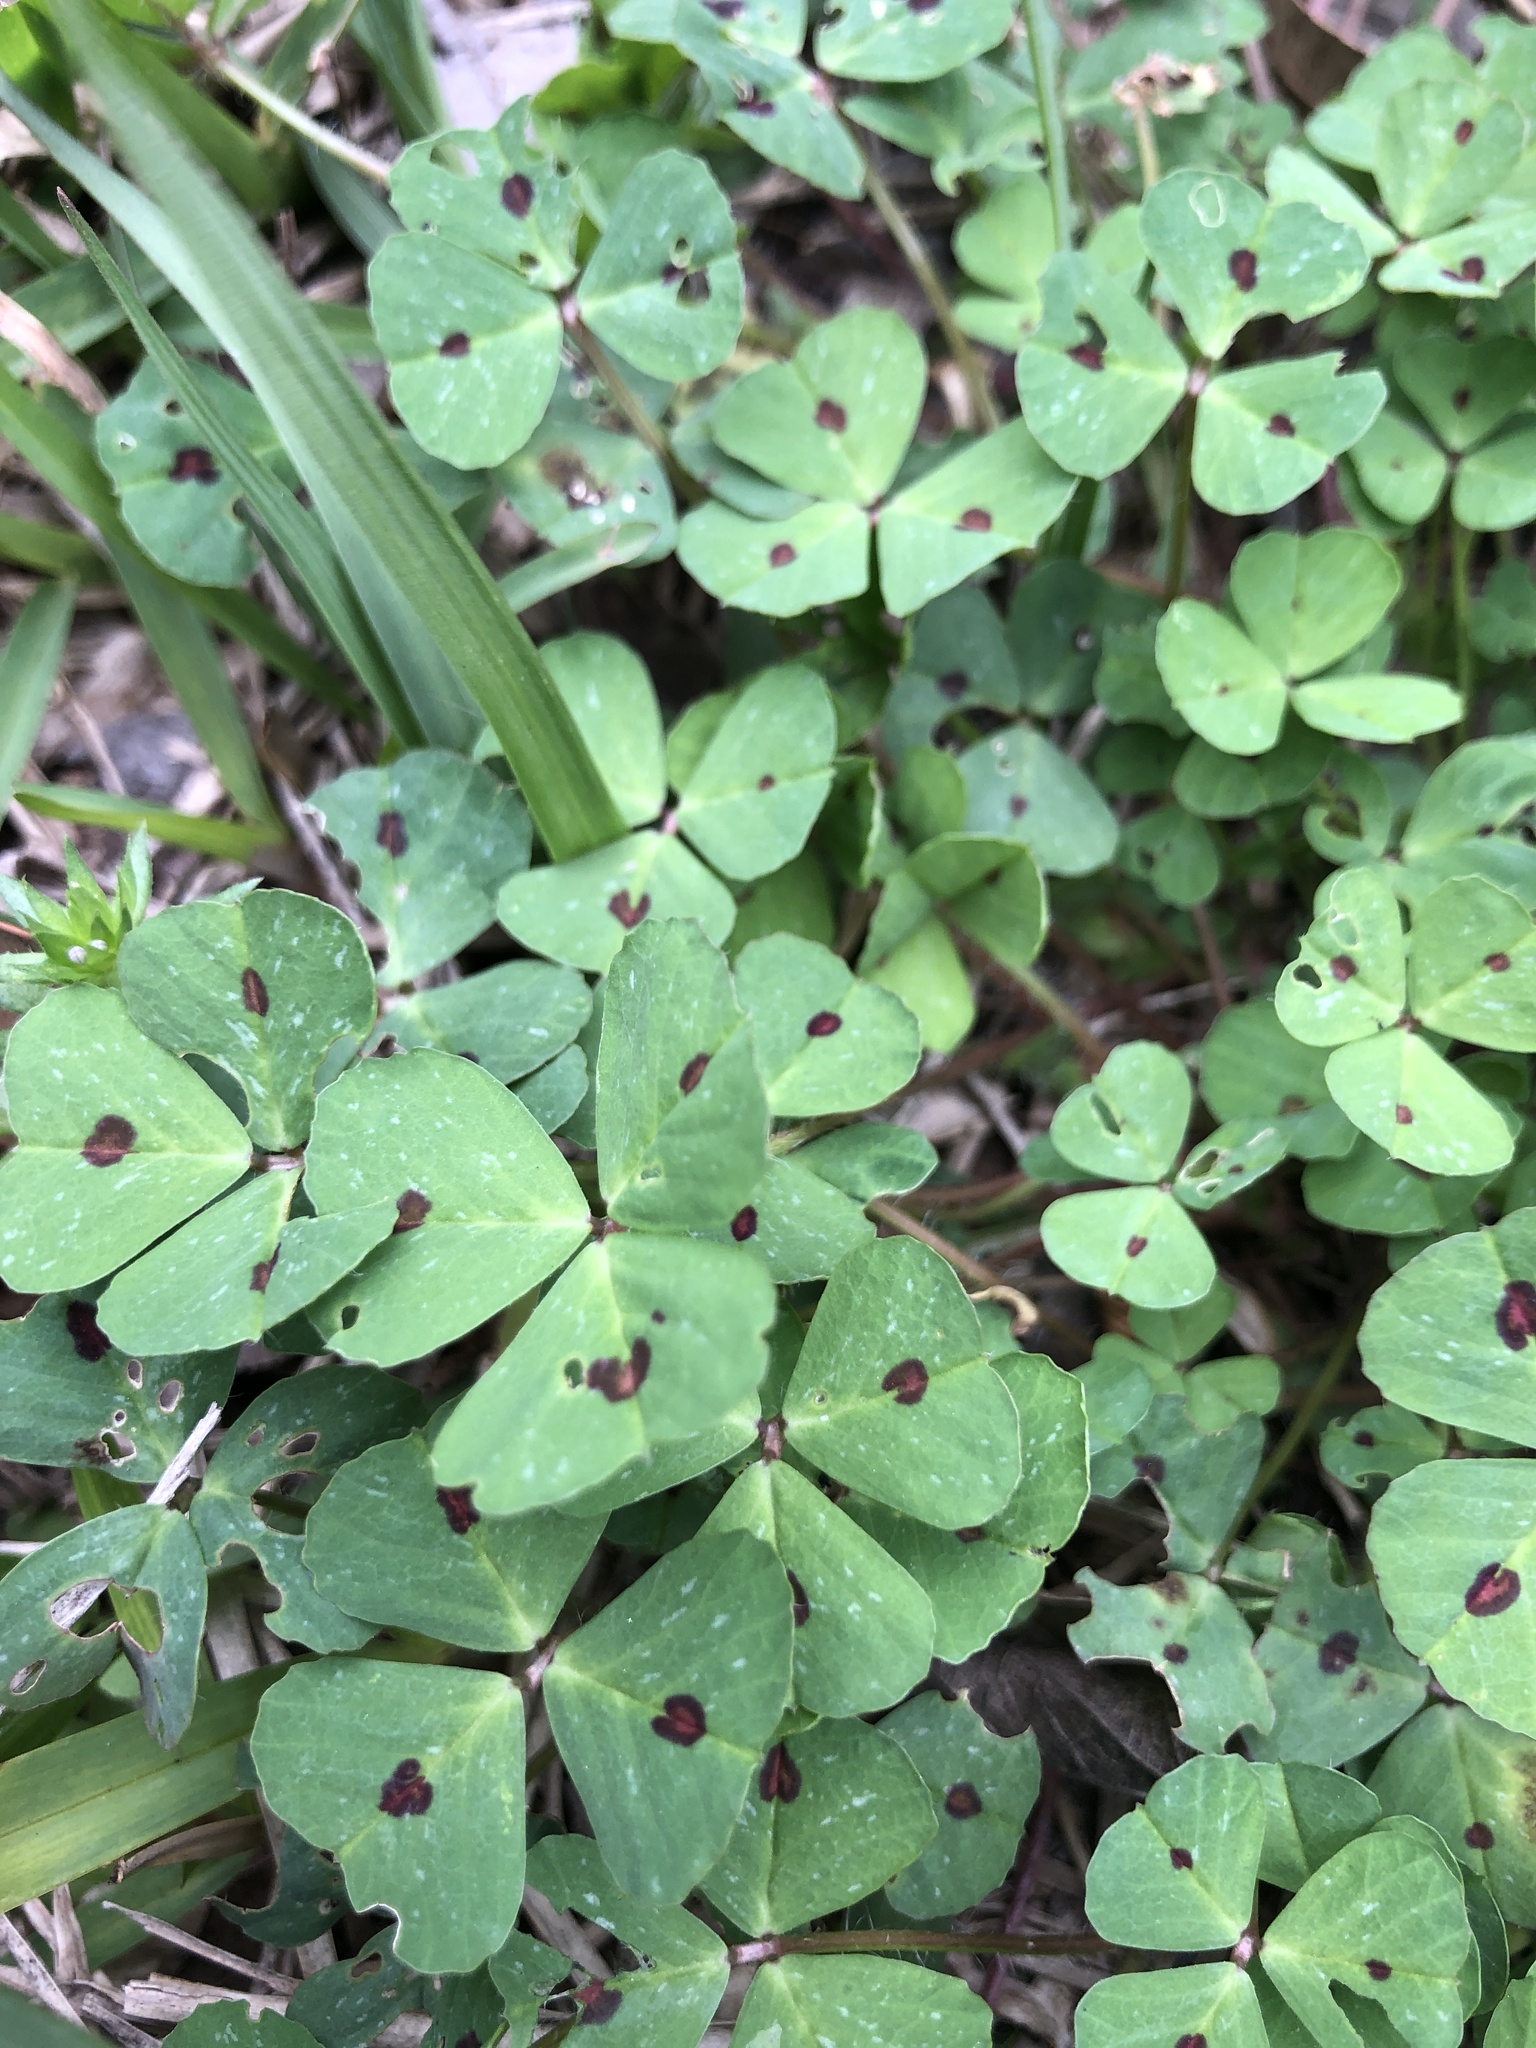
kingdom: Plantae
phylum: Tracheophyta
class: Magnoliopsida
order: Fabales
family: Fabaceae
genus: Medicago
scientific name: Medicago arabica
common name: Spotted medick
